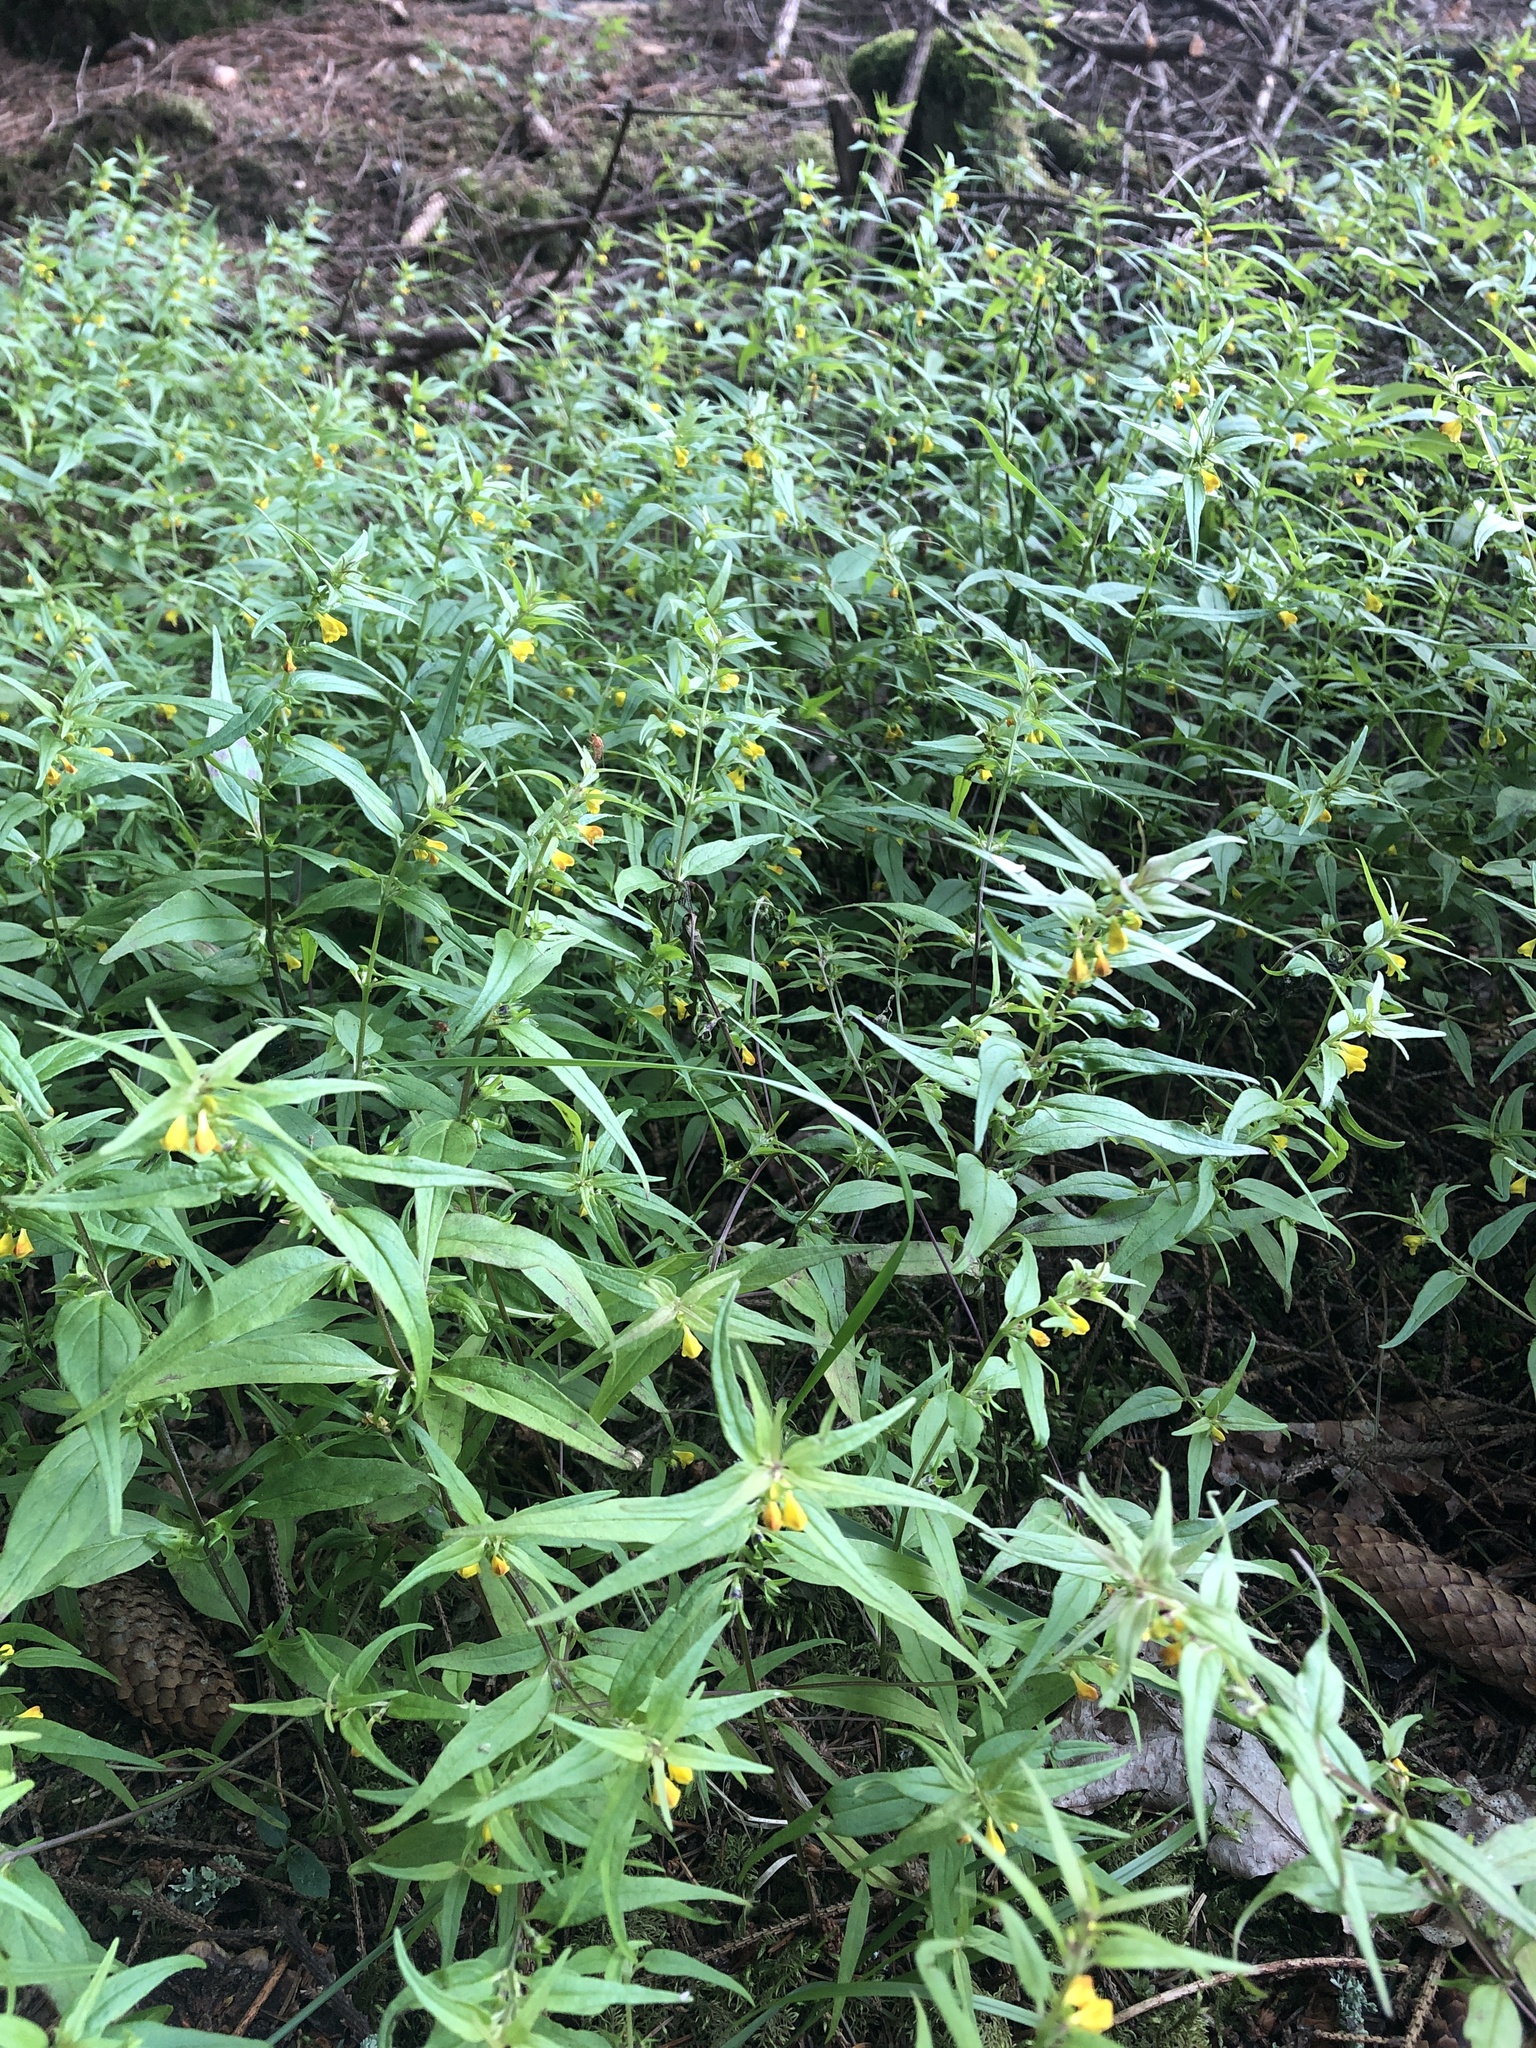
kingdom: Plantae
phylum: Tracheophyta
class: Magnoliopsida
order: Lamiales
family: Orobanchaceae
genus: Melampyrum
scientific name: Melampyrum sylvaticum
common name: Small cow-wheat
